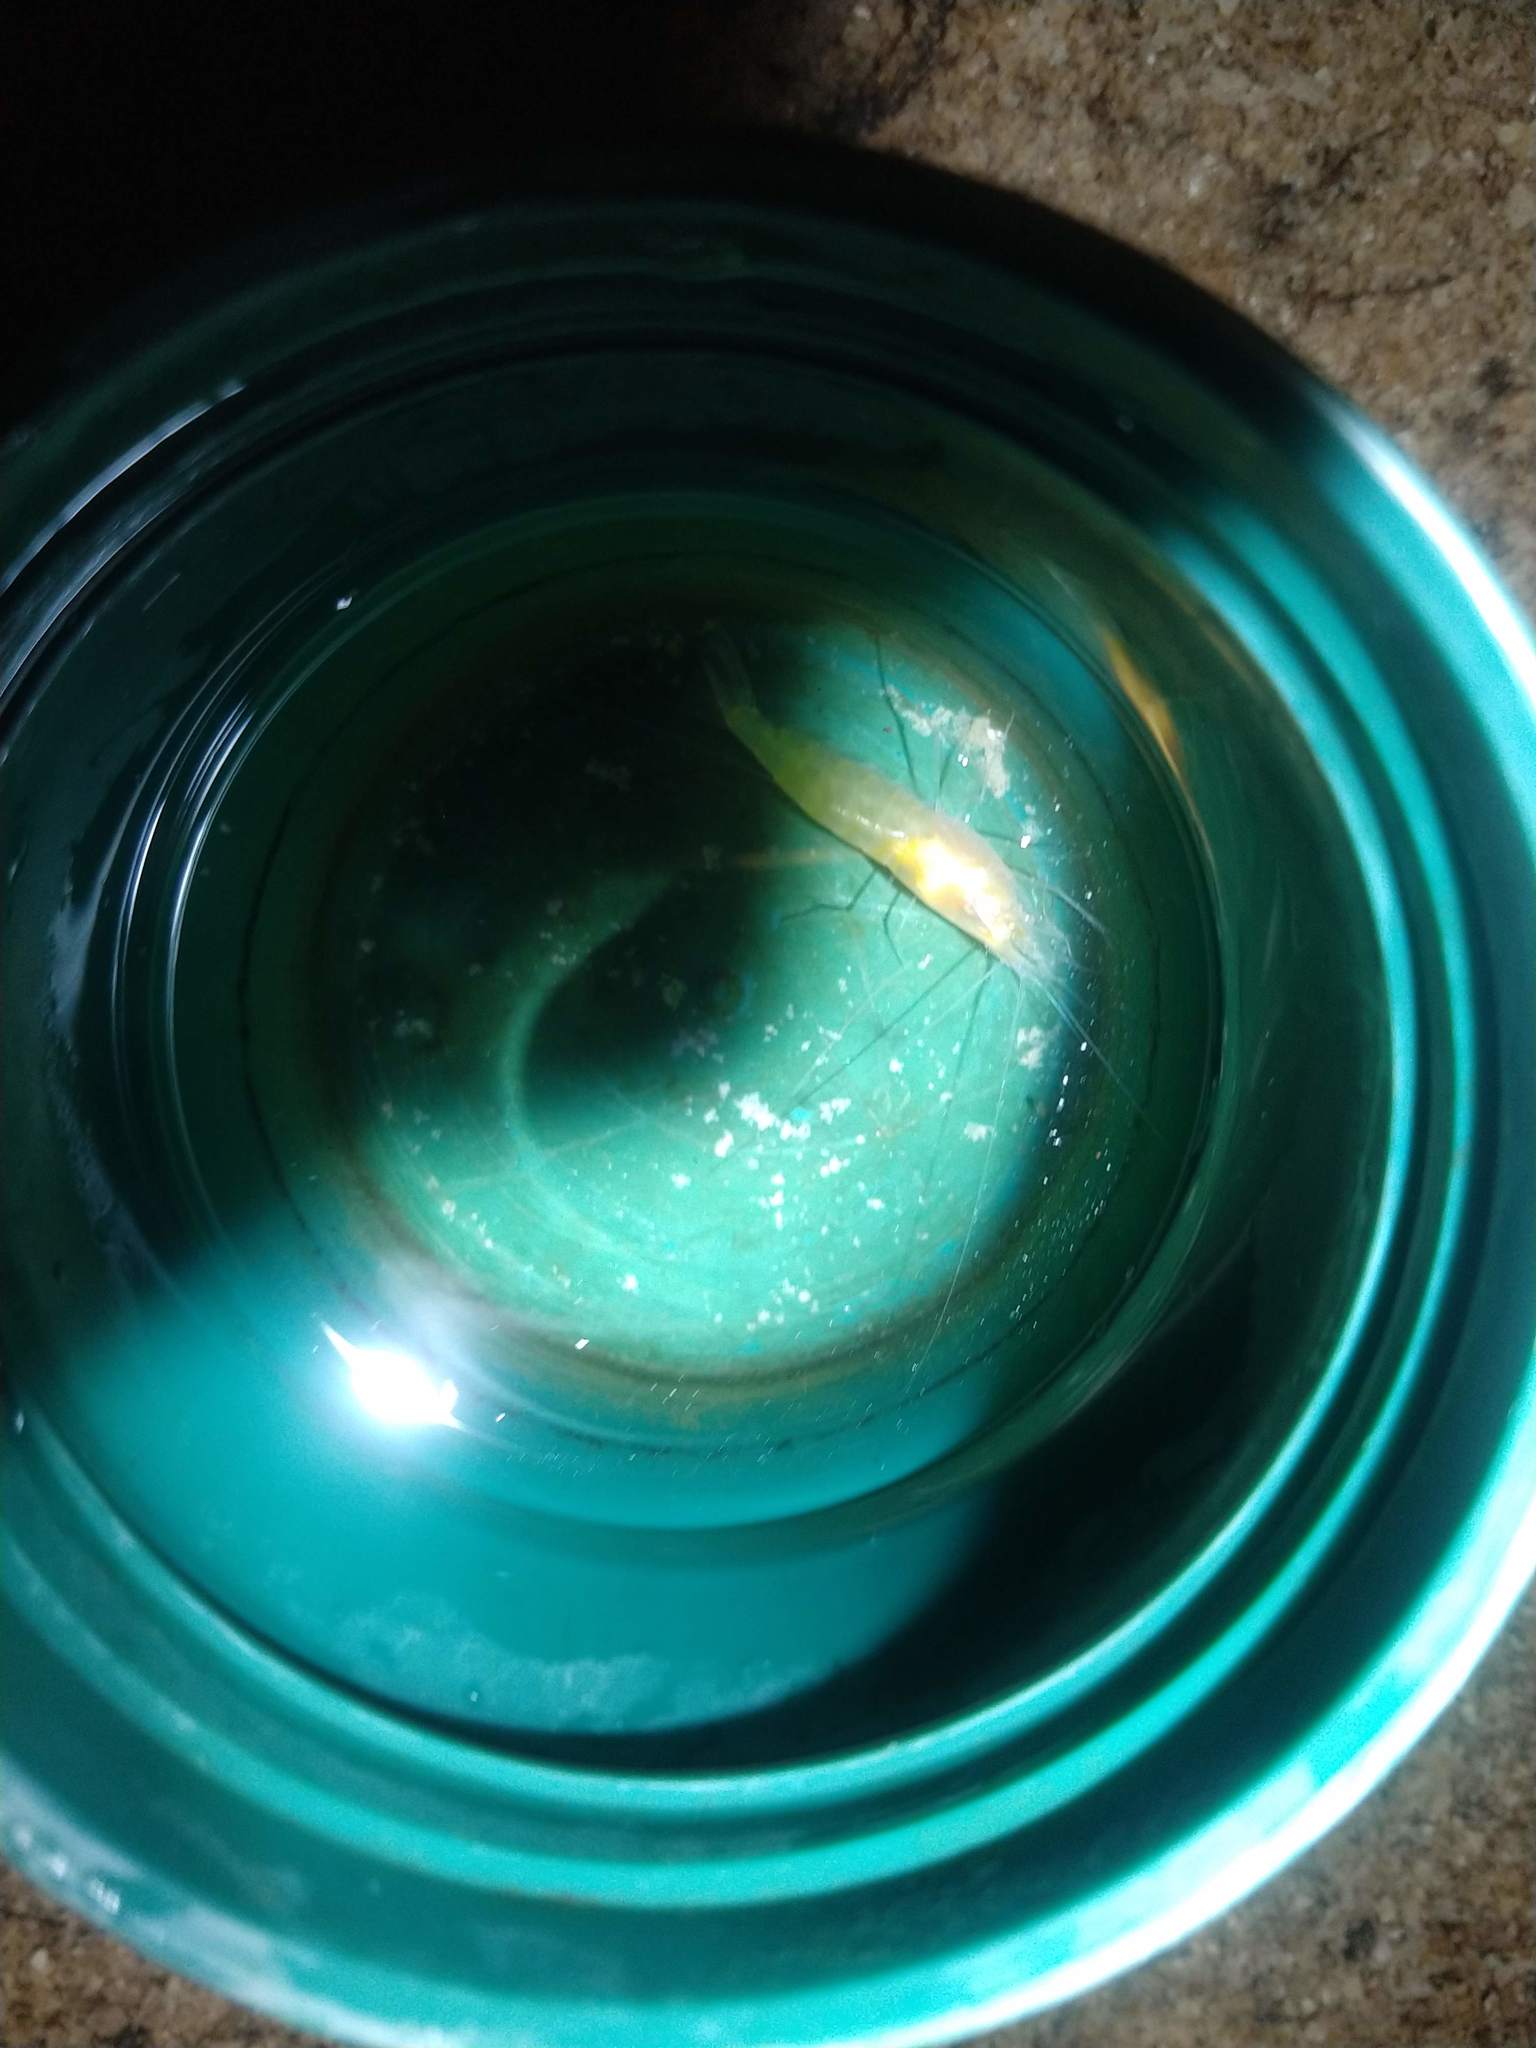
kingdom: Animalia
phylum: Arthropoda
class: Malacostraca
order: Decapoda
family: Palaemonidae
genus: Creaseria
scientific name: Creaseria morleyi
